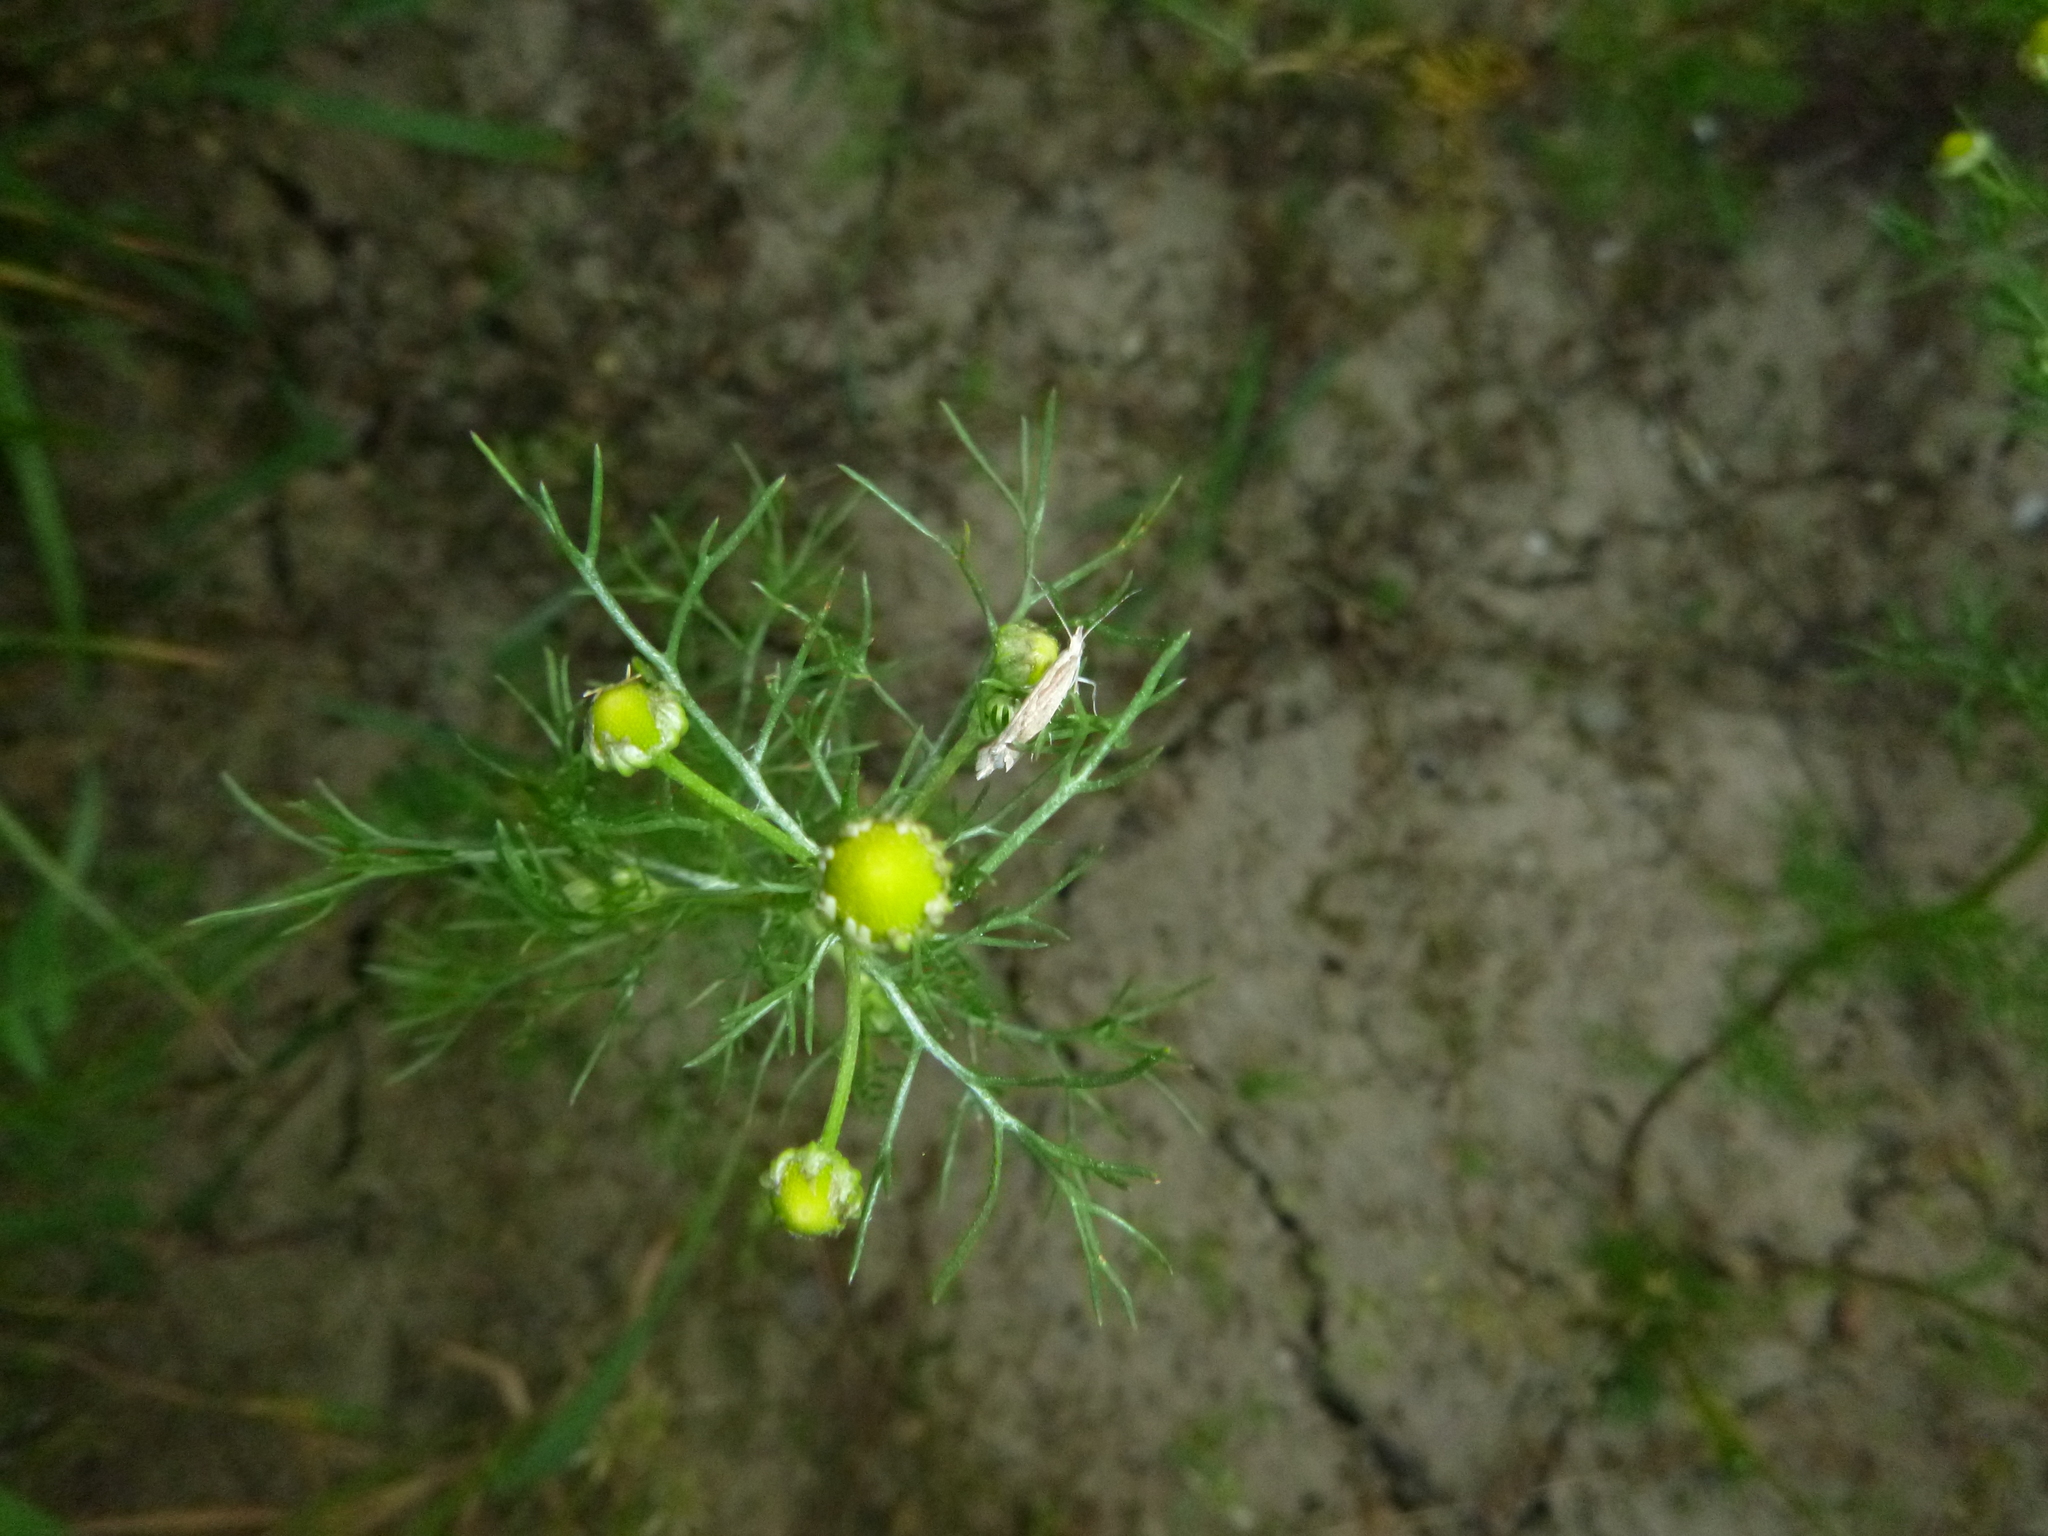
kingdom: Animalia
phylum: Arthropoda
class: Insecta
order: Lepidoptera
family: Plutellidae
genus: Plutella
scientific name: Plutella xylostella
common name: Diamond-back moth
